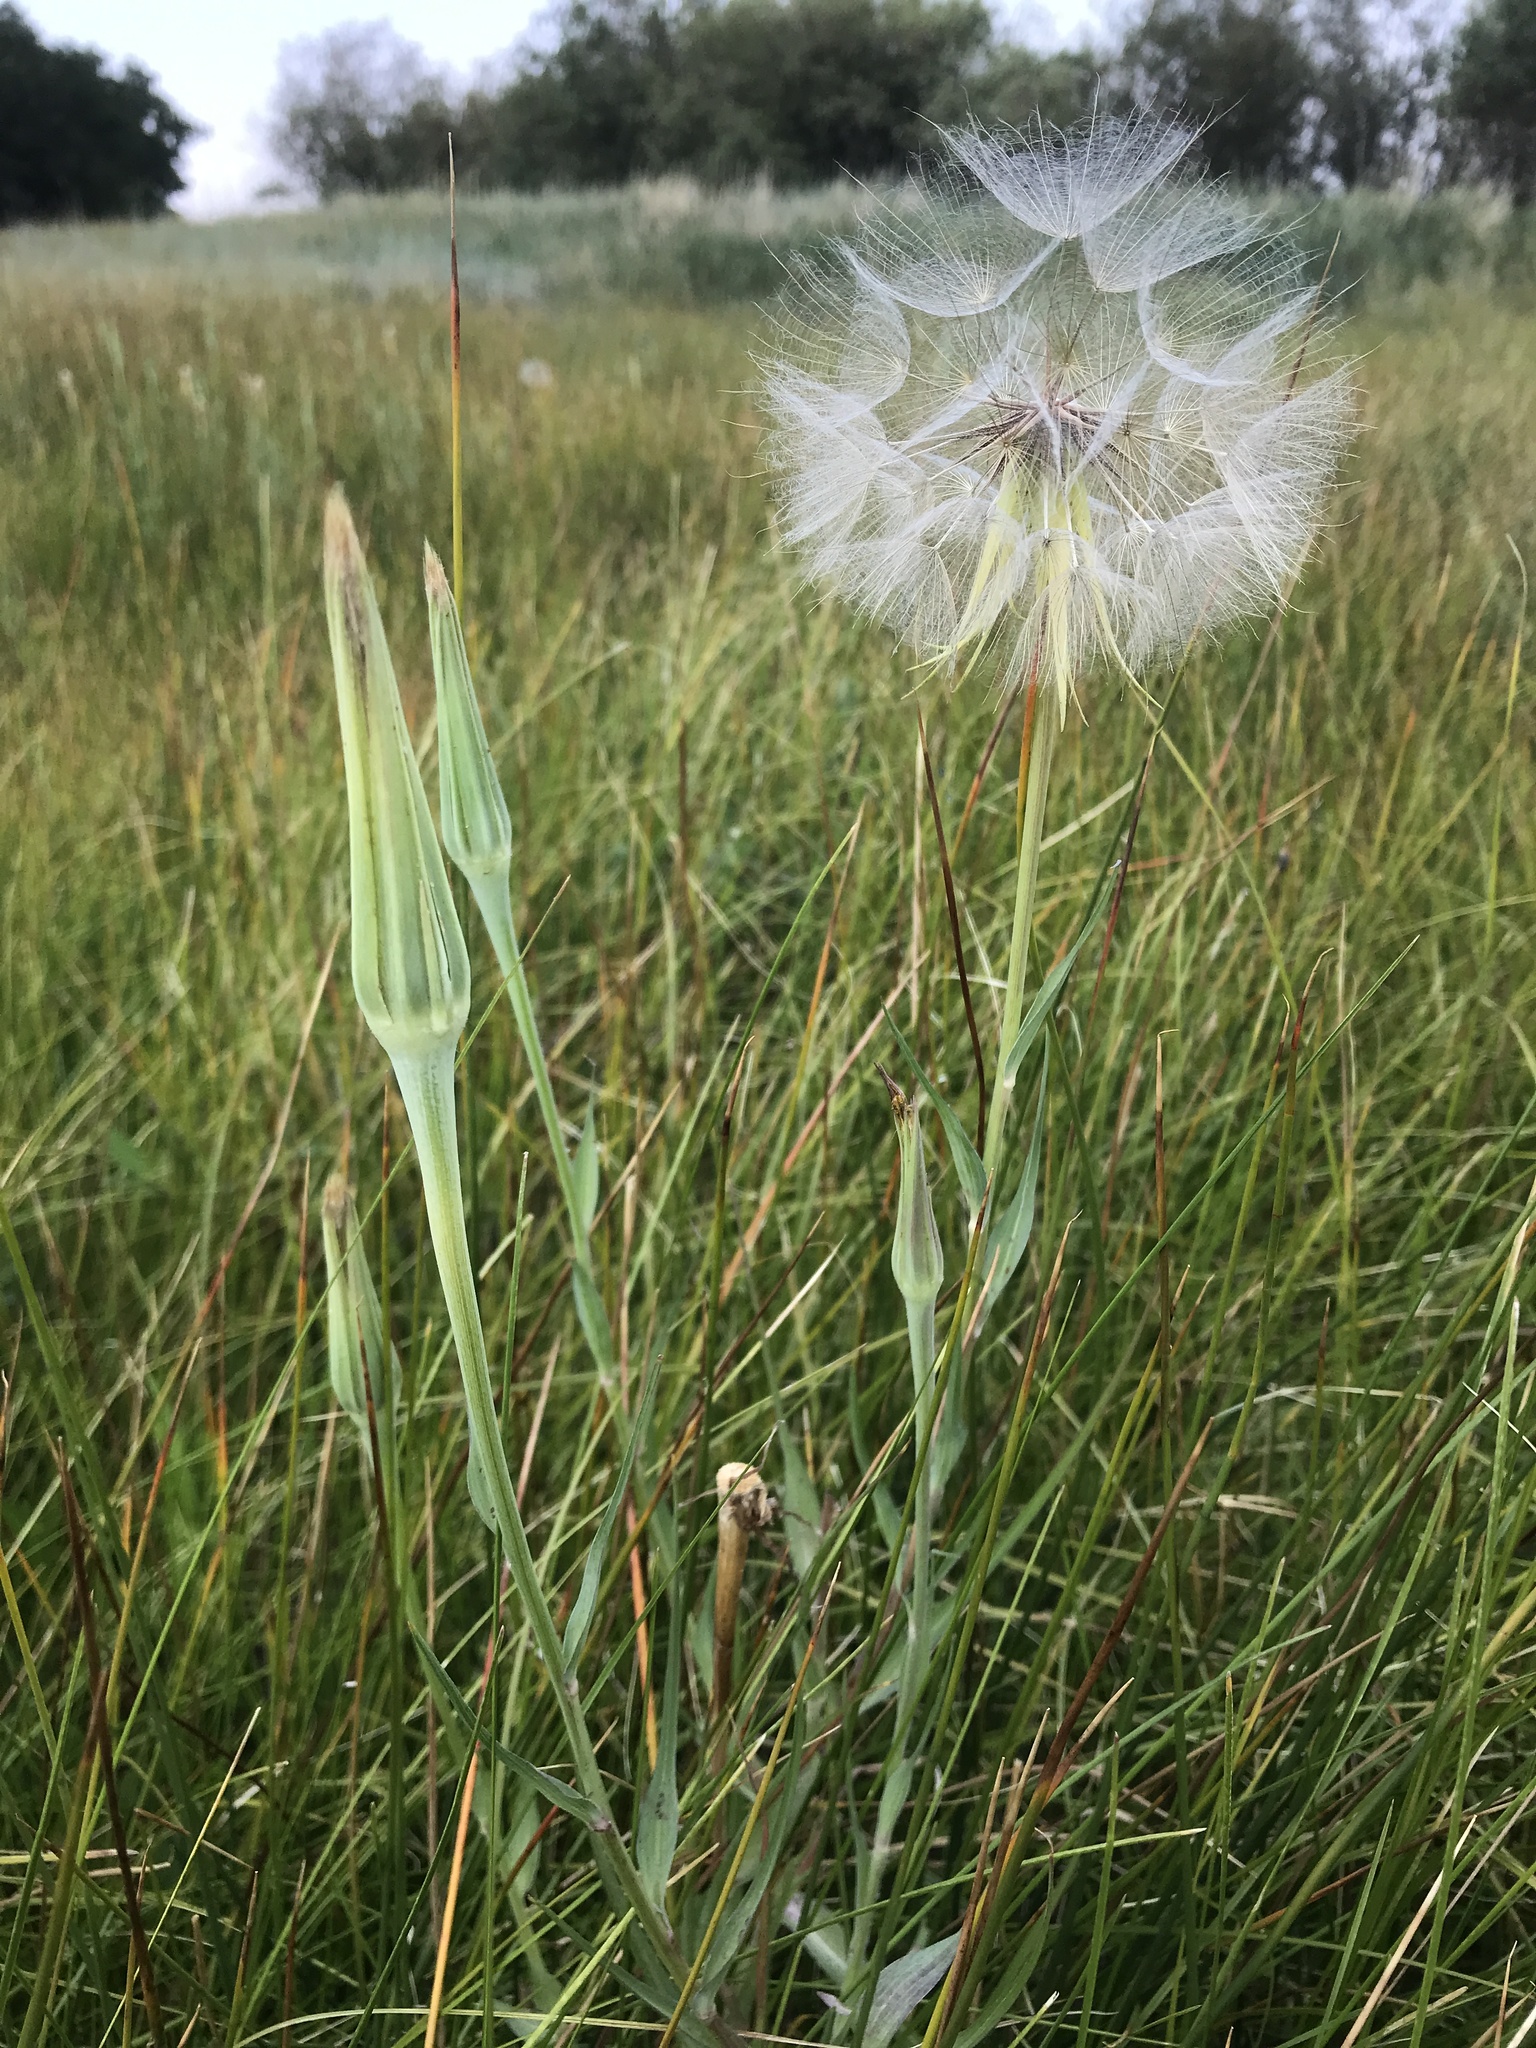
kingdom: Plantae
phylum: Tracheophyta
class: Magnoliopsida
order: Asterales
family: Asteraceae
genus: Tragopogon
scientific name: Tragopogon dubius
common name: Yellow salsify
